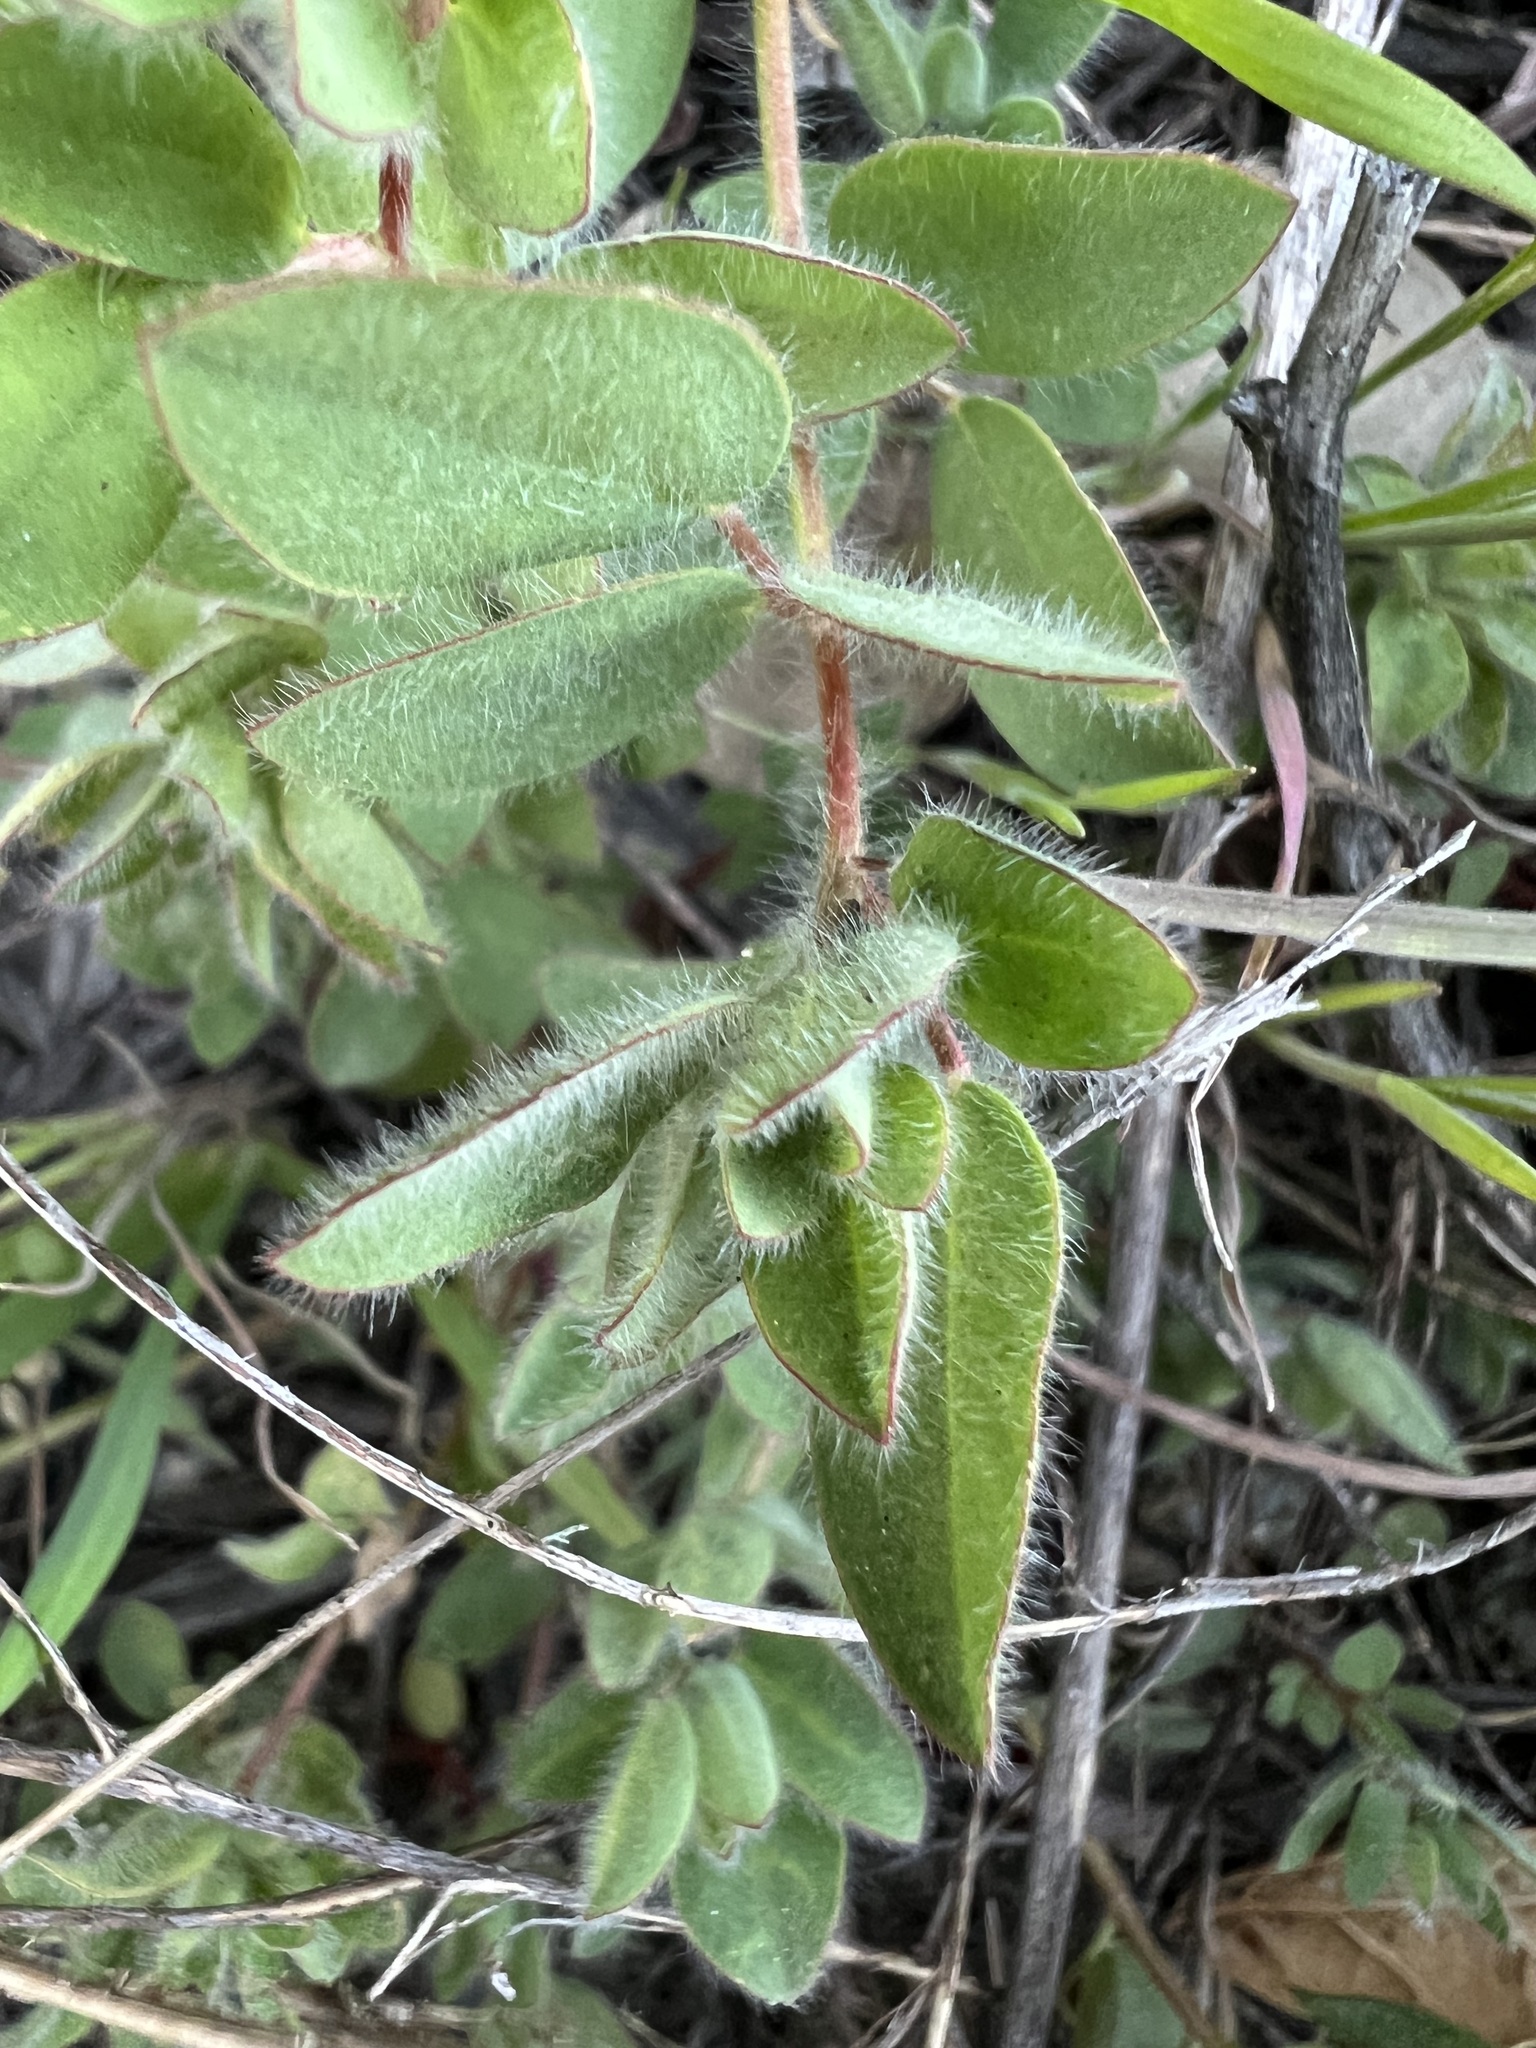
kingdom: Plantae
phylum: Tracheophyta
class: Magnoliopsida
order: Fabales
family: Fabaceae
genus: Acmispon
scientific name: Acmispon americanus
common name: American bird's-foot trefoil
